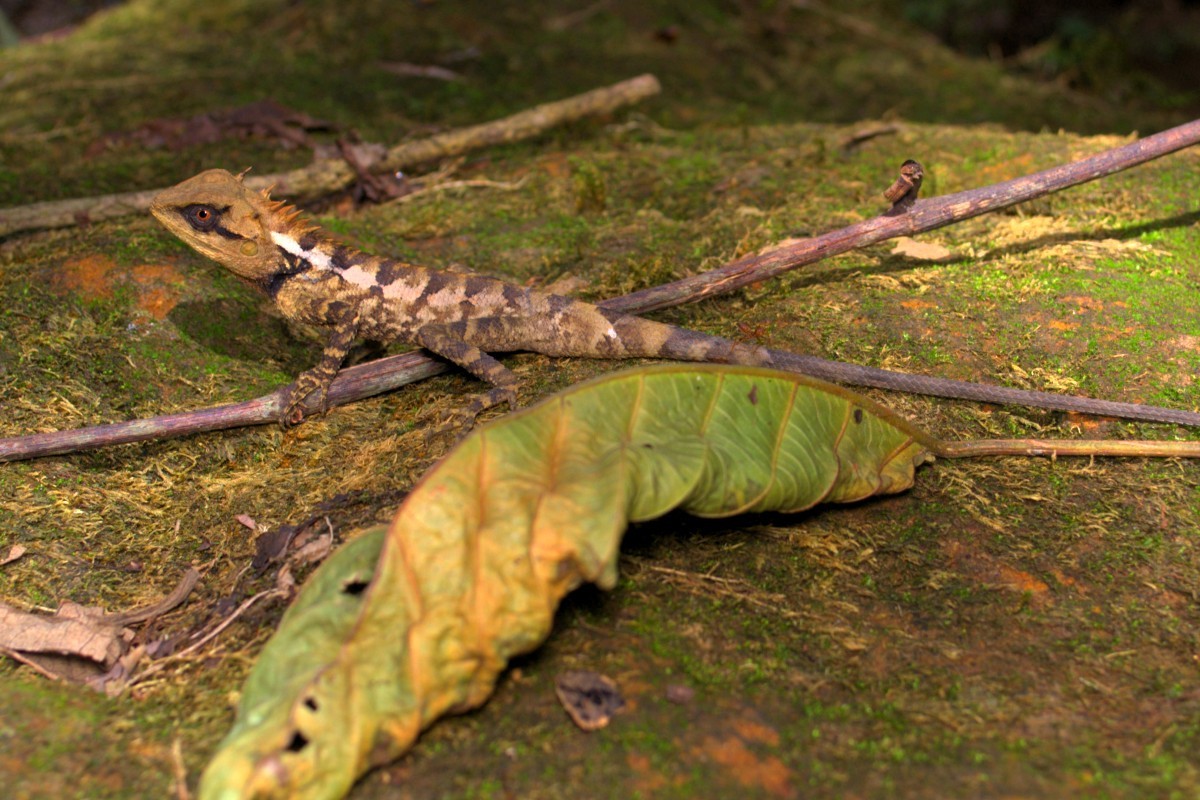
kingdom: Animalia
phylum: Chordata
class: Squamata
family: Agamidae
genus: Calotes
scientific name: Calotes emma
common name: Thailand bloodsucker
